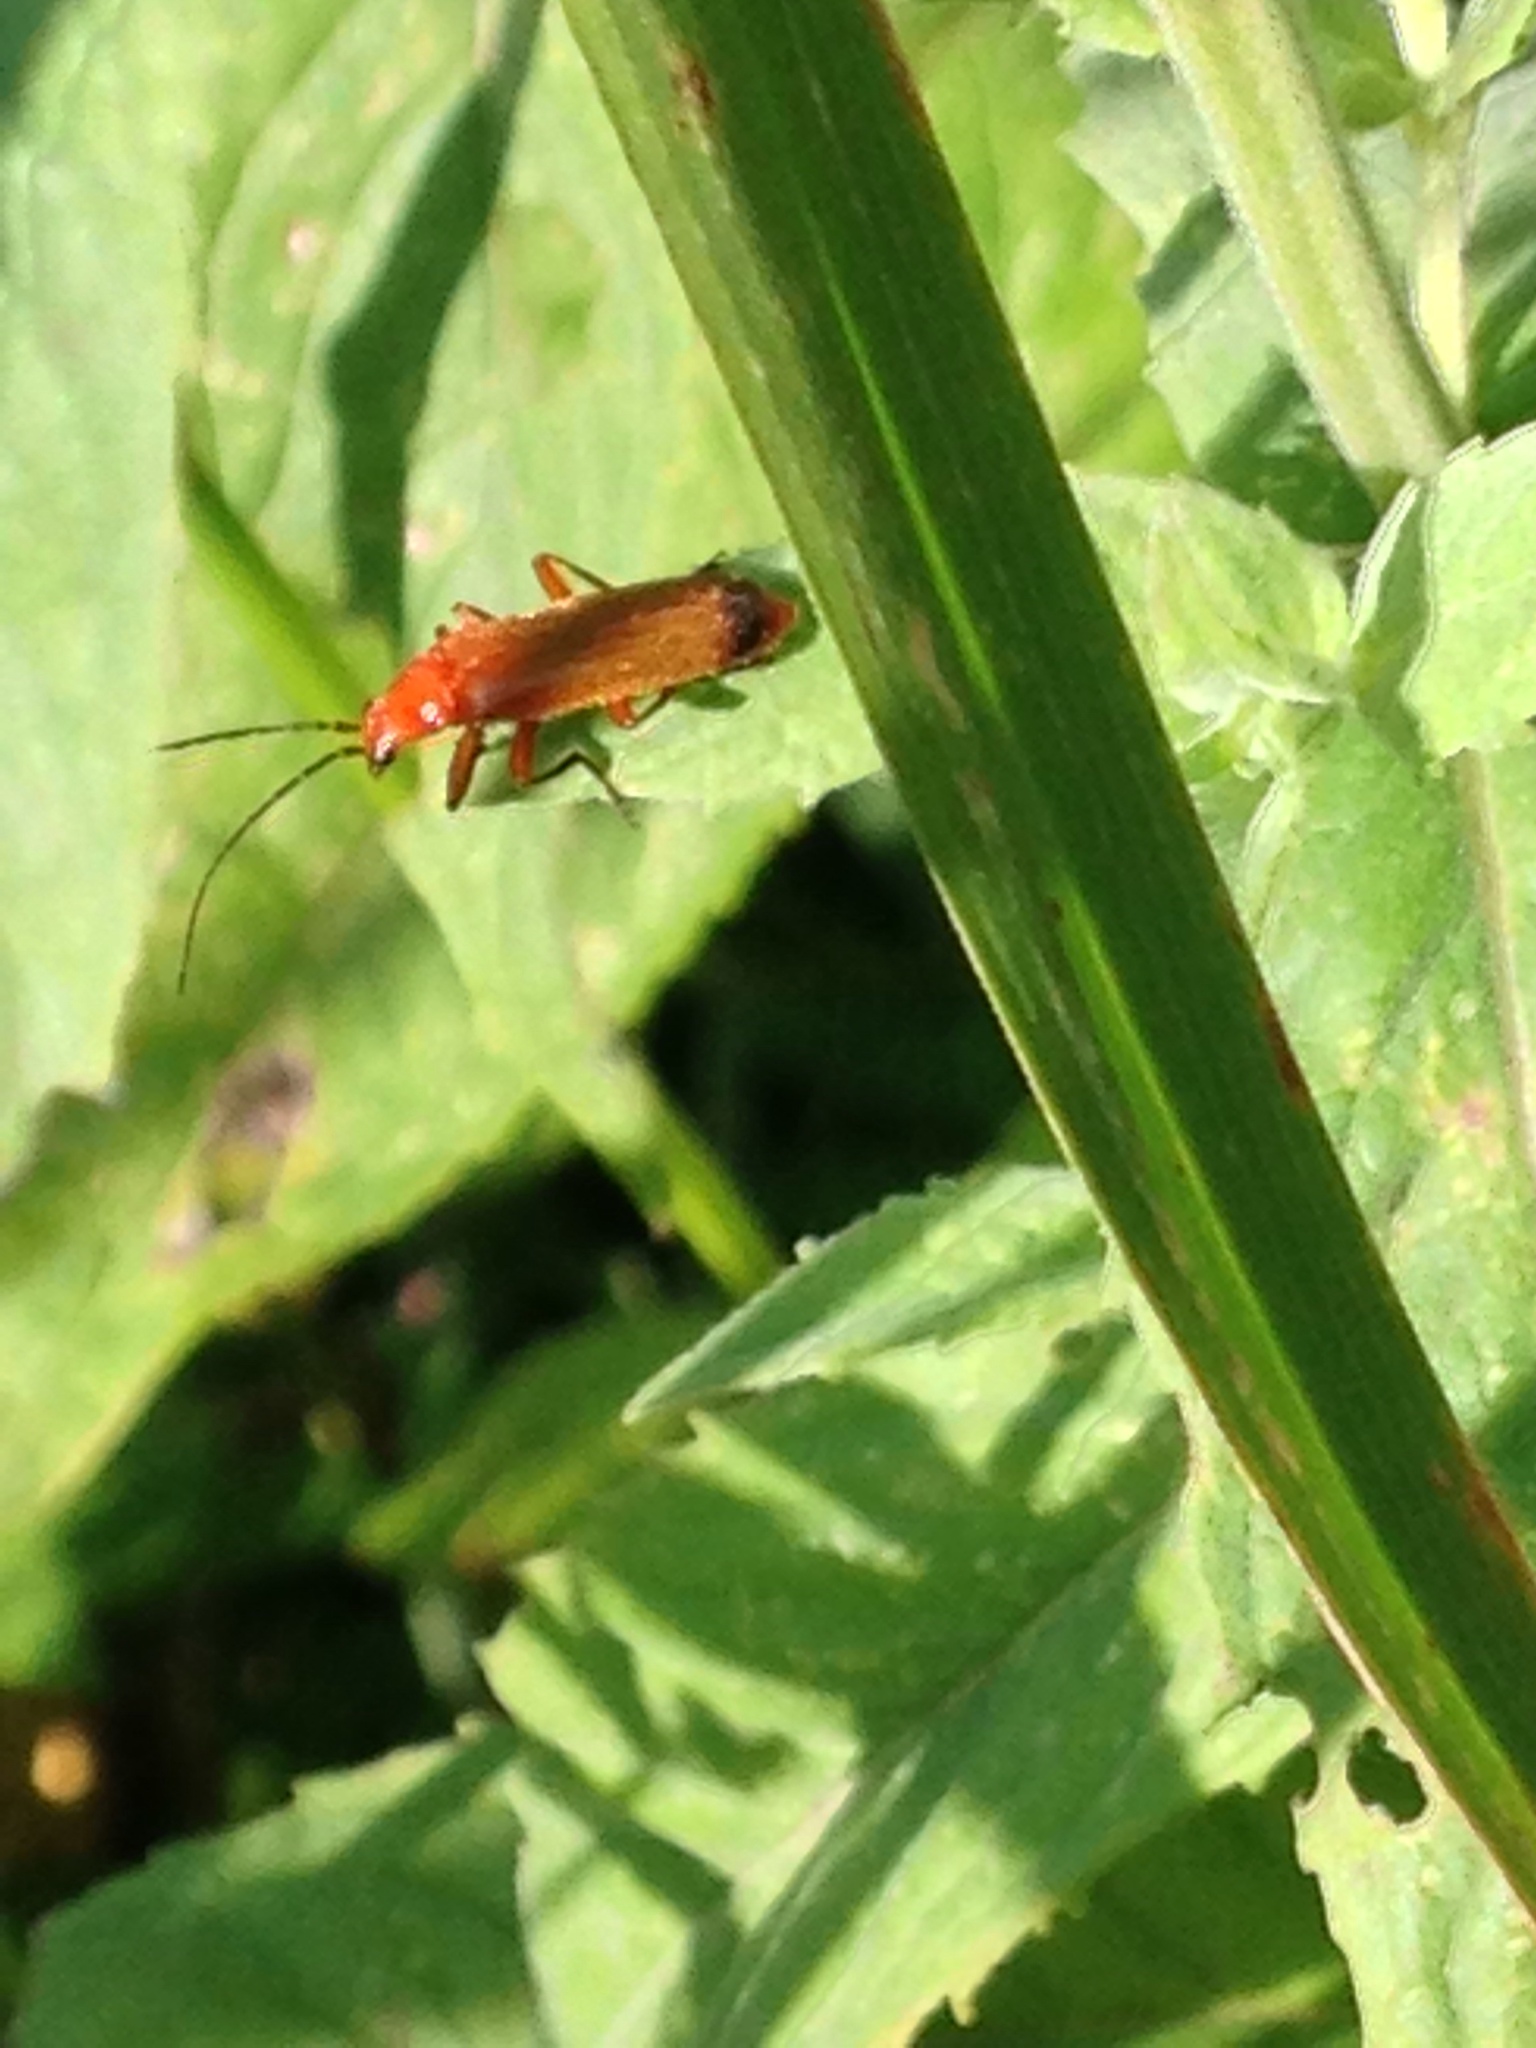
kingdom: Animalia
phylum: Arthropoda
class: Insecta
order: Coleoptera
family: Cantharidae
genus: Rhagonycha
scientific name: Rhagonycha fulva
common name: Common red soldier beetle
